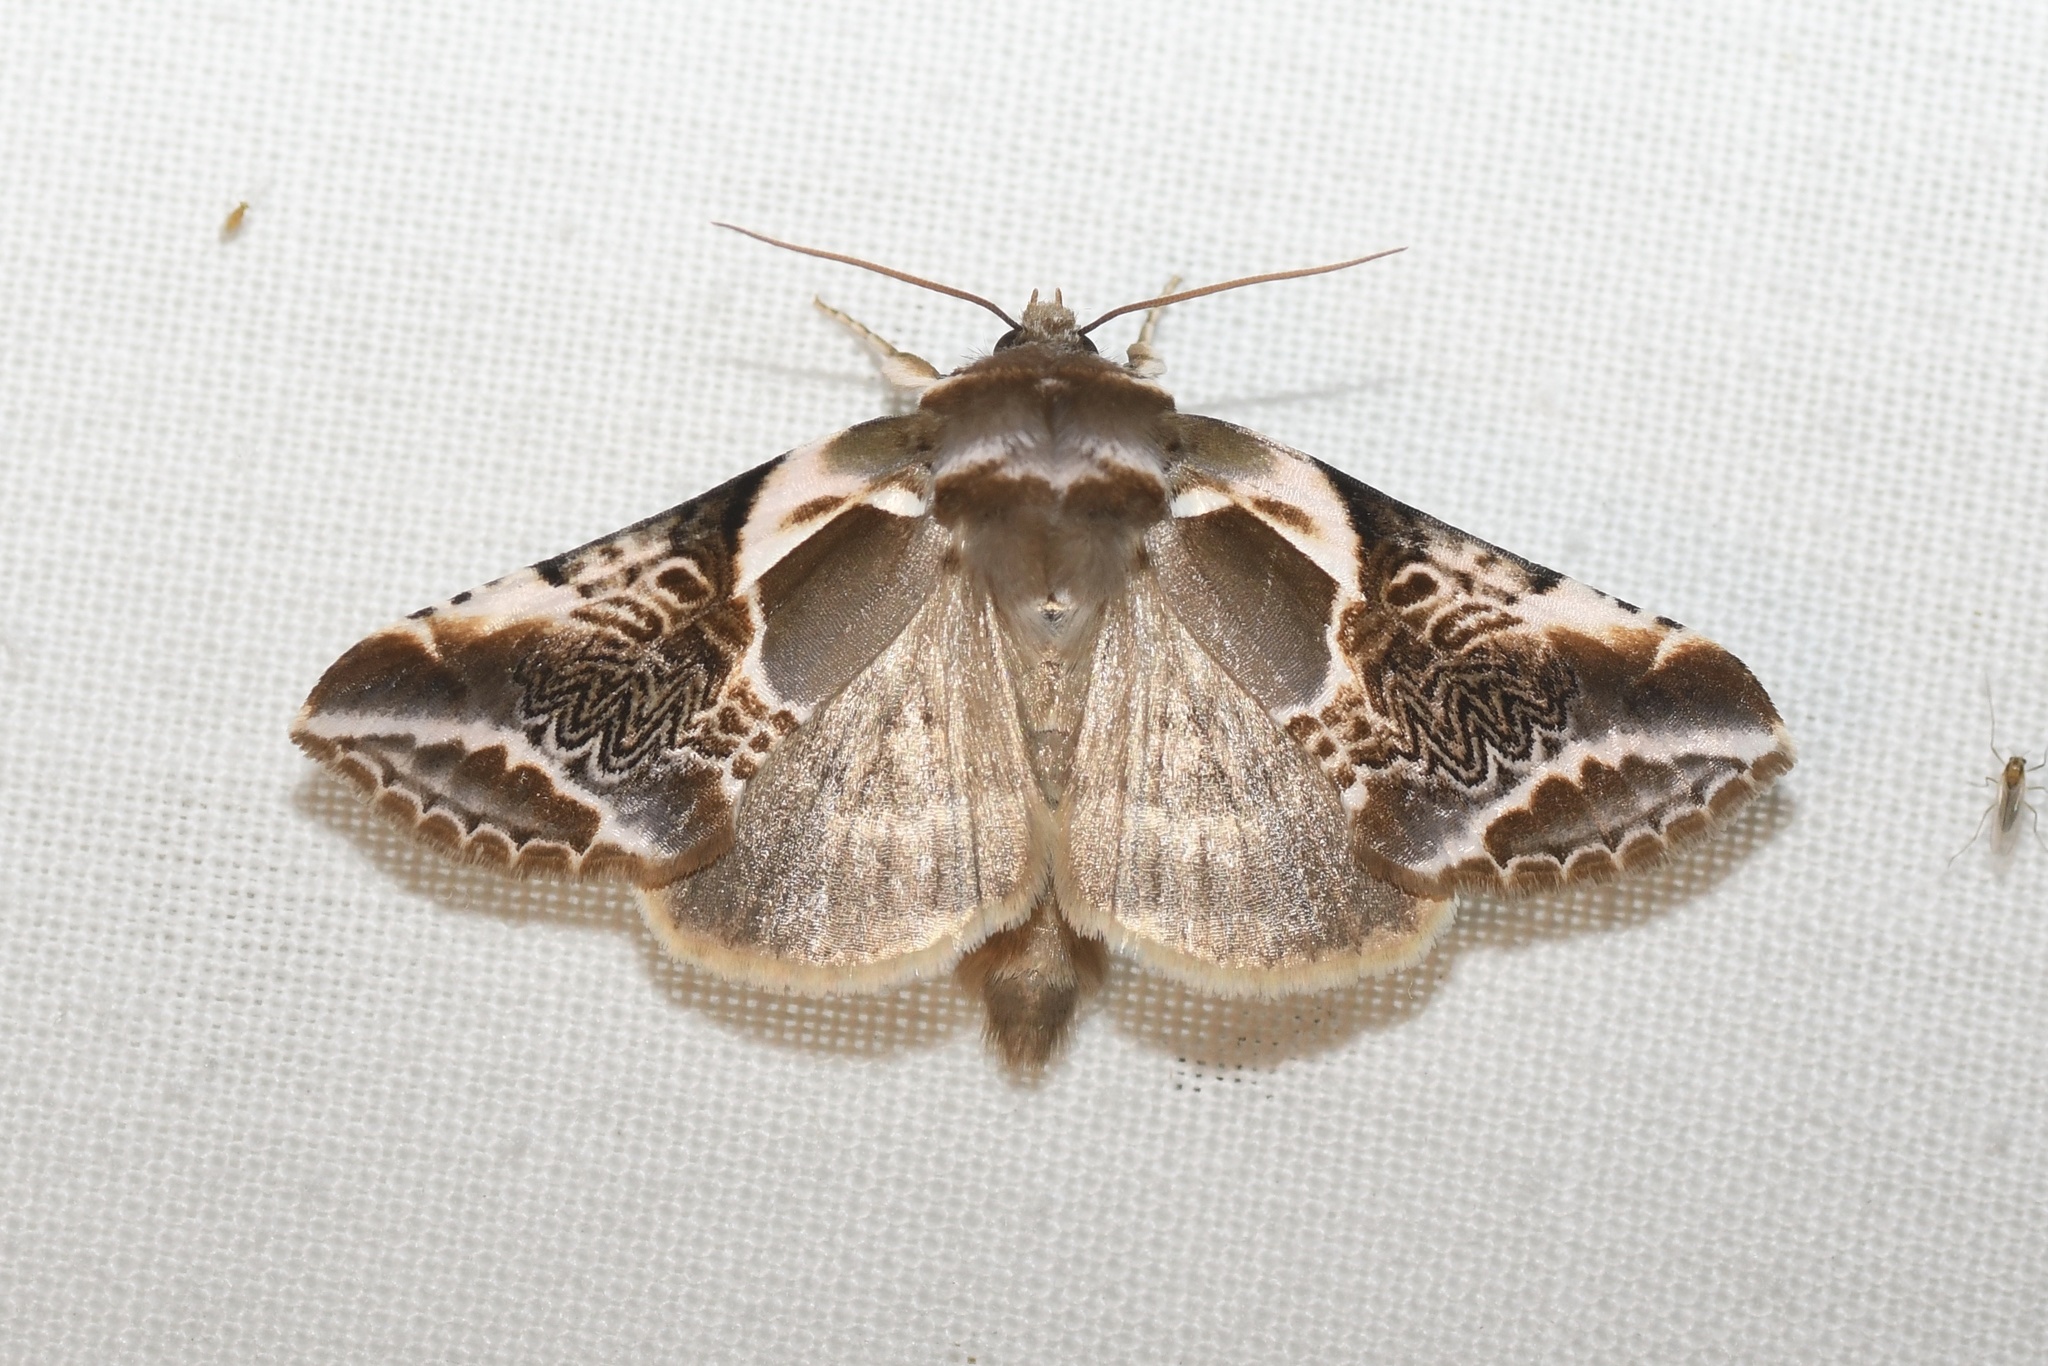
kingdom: Animalia
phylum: Arthropoda
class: Insecta
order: Lepidoptera
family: Drepanidae
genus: Habrosyne
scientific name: Habrosyne scripta
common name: Lettered habrosyne moth
